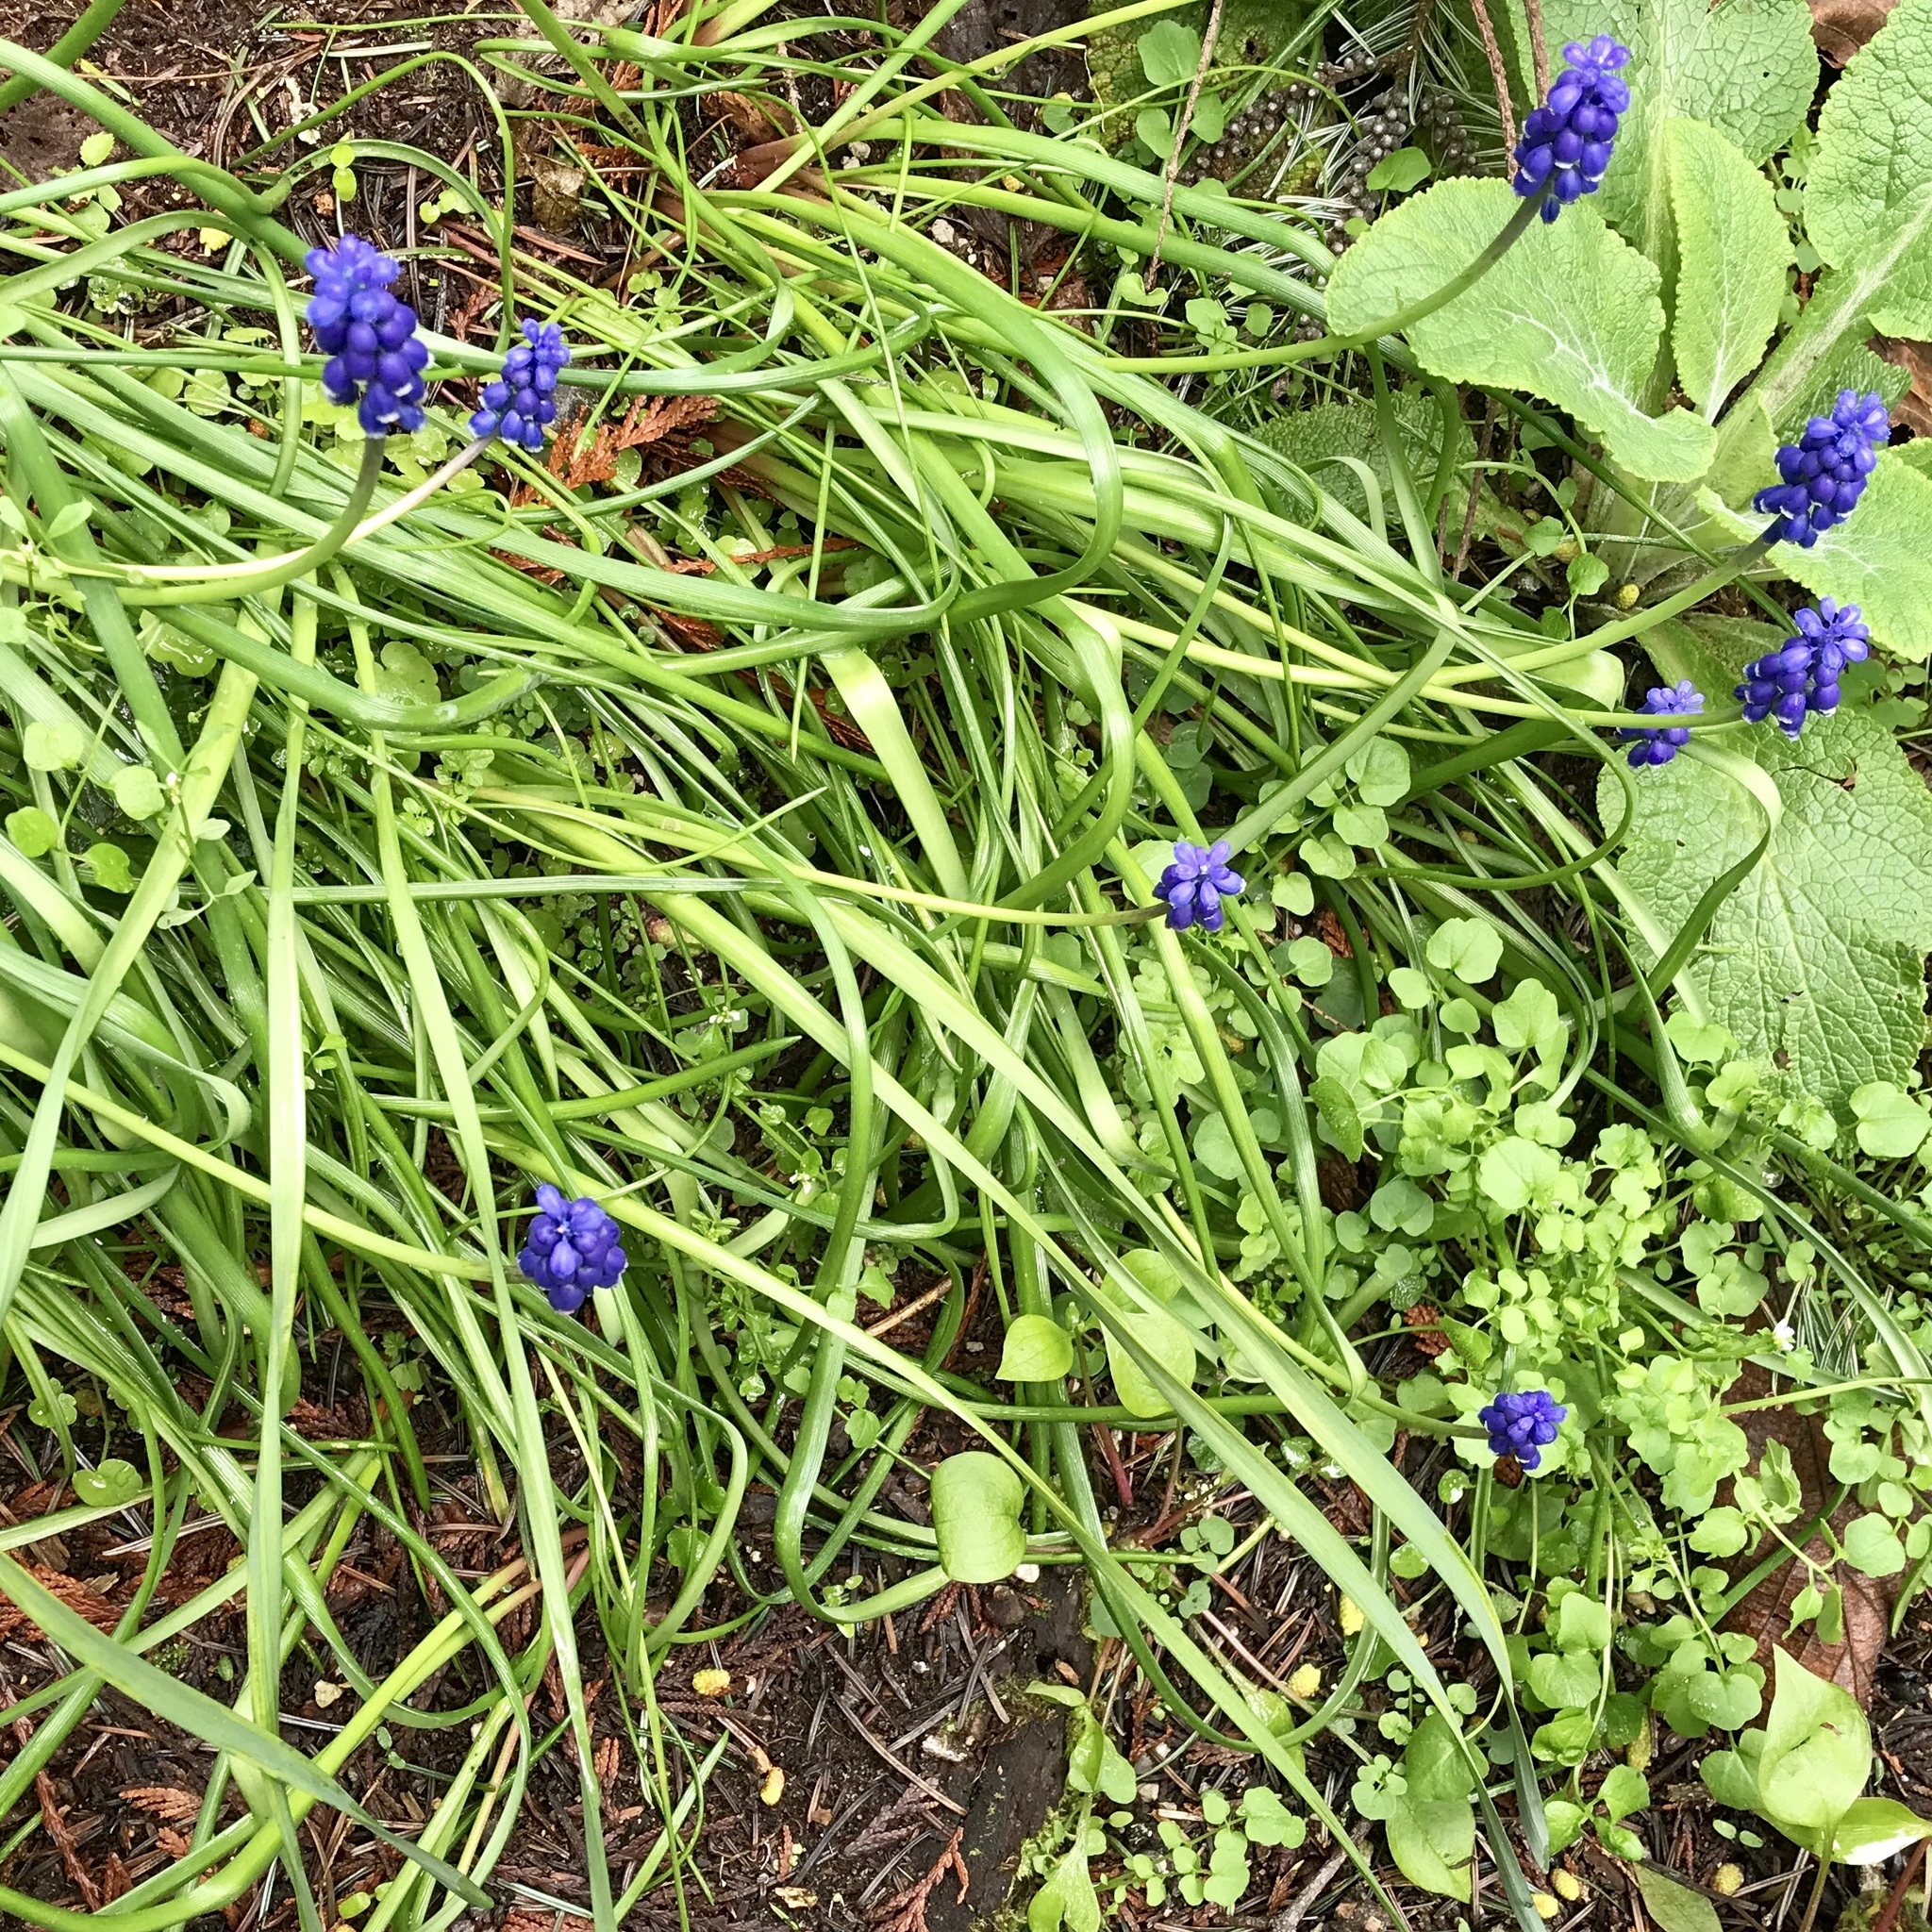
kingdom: Plantae
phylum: Tracheophyta
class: Liliopsida
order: Asparagales
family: Asparagaceae
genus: Muscari
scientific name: Muscari armeniacum
